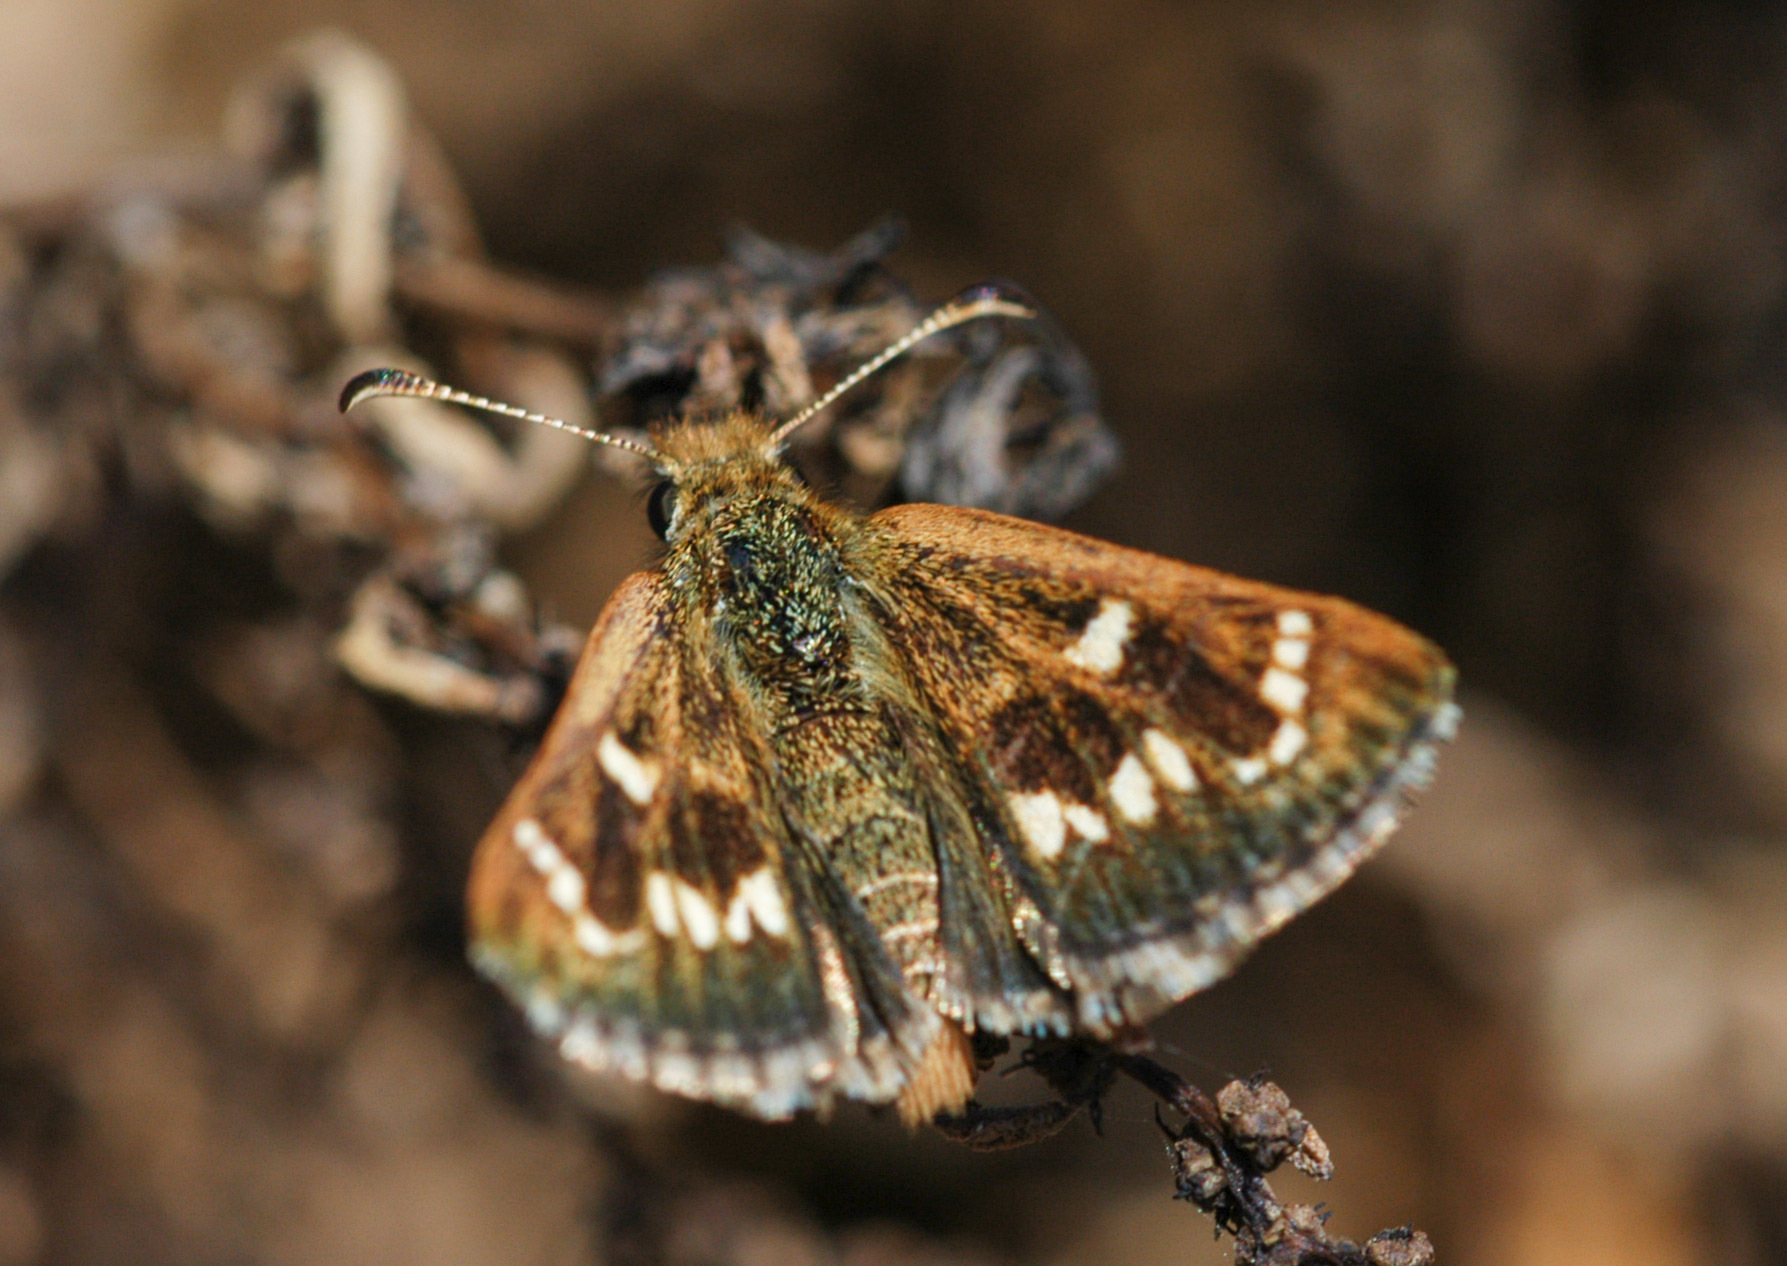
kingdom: Animalia
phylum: Arthropoda
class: Insecta
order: Lepidoptera
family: Hesperiidae
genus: Anisynta
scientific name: Anisynta cynone
